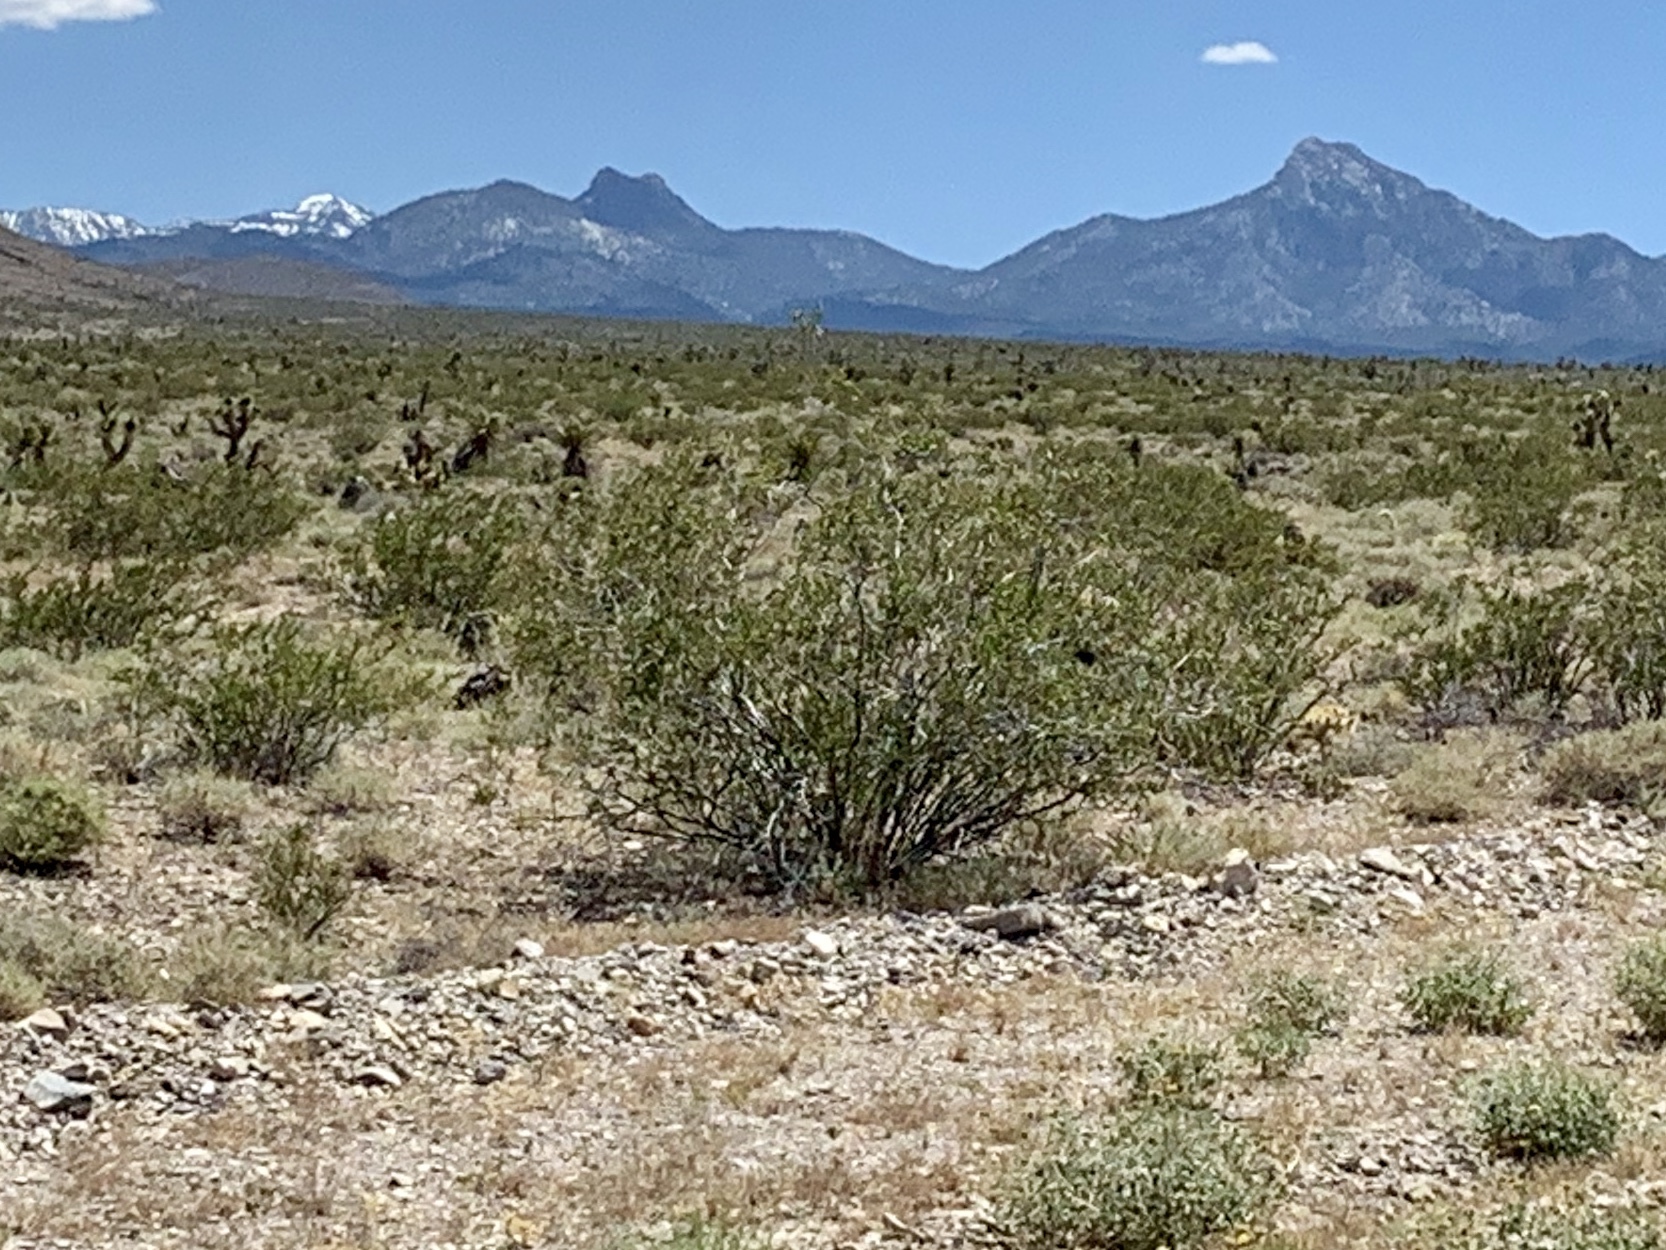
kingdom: Plantae
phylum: Tracheophyta
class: Magnoliopsida
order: Zygophyllales
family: Zygophyllaceae
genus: Larrea
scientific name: Larrea tridentata
